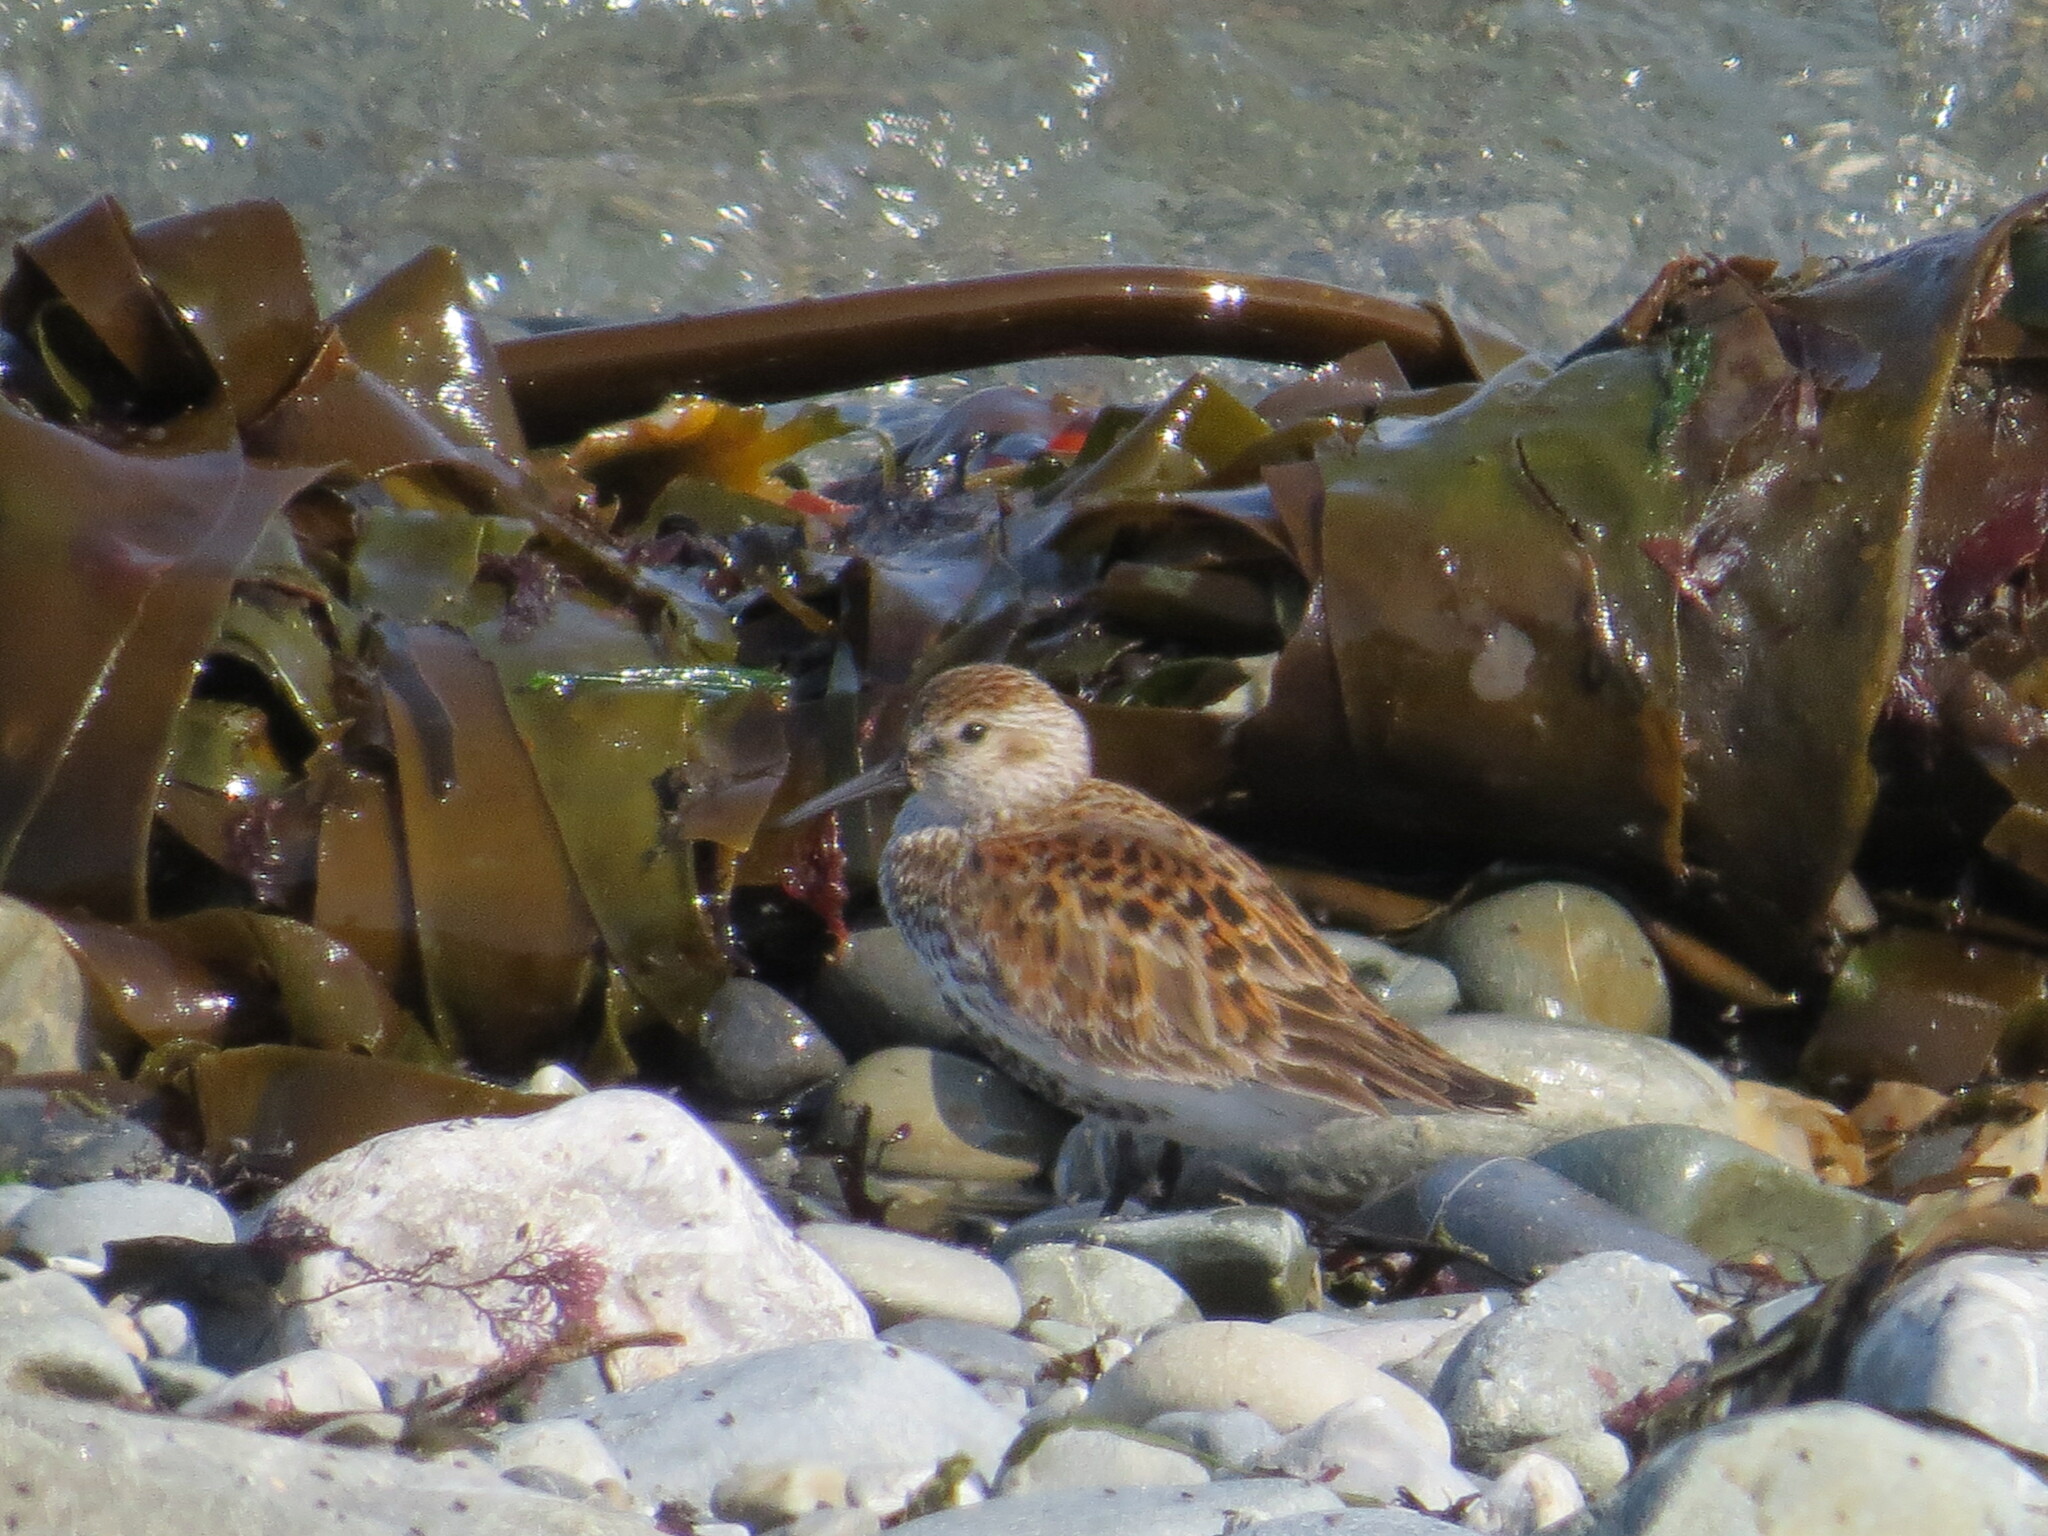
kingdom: Animalia
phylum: Chordata
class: Aves
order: Charadriiformes
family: Scolopacidae
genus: Calidris
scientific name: Calidris alpina
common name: Dunlin
